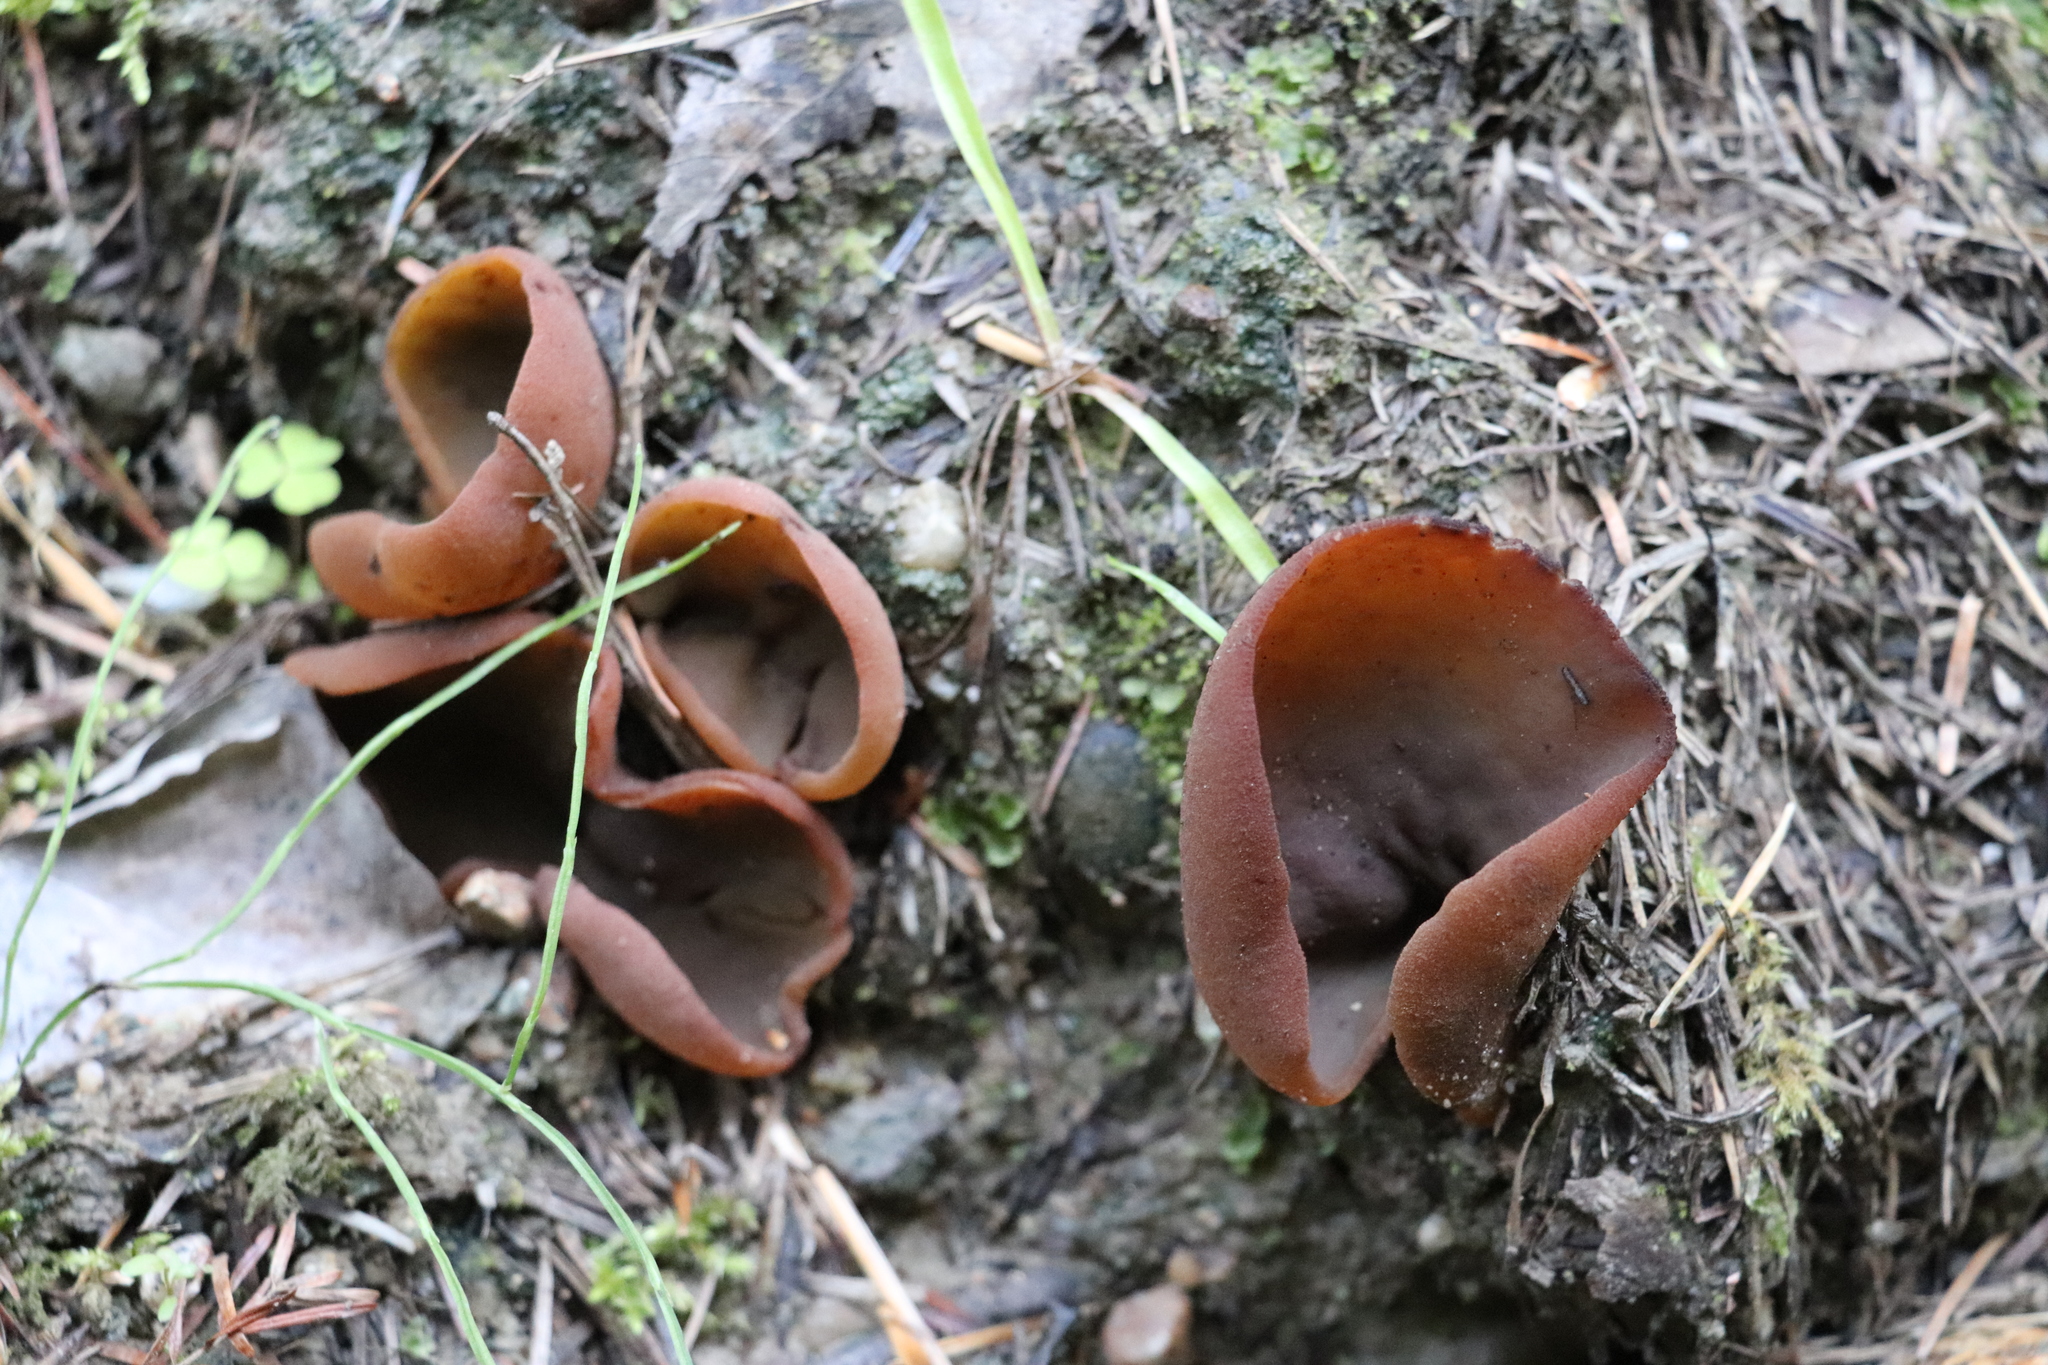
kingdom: Fungi
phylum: Ascomycota
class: Pezizomycetes
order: Pezizales
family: Pezizaceae
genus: Legaliana
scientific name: Legaliana badia
